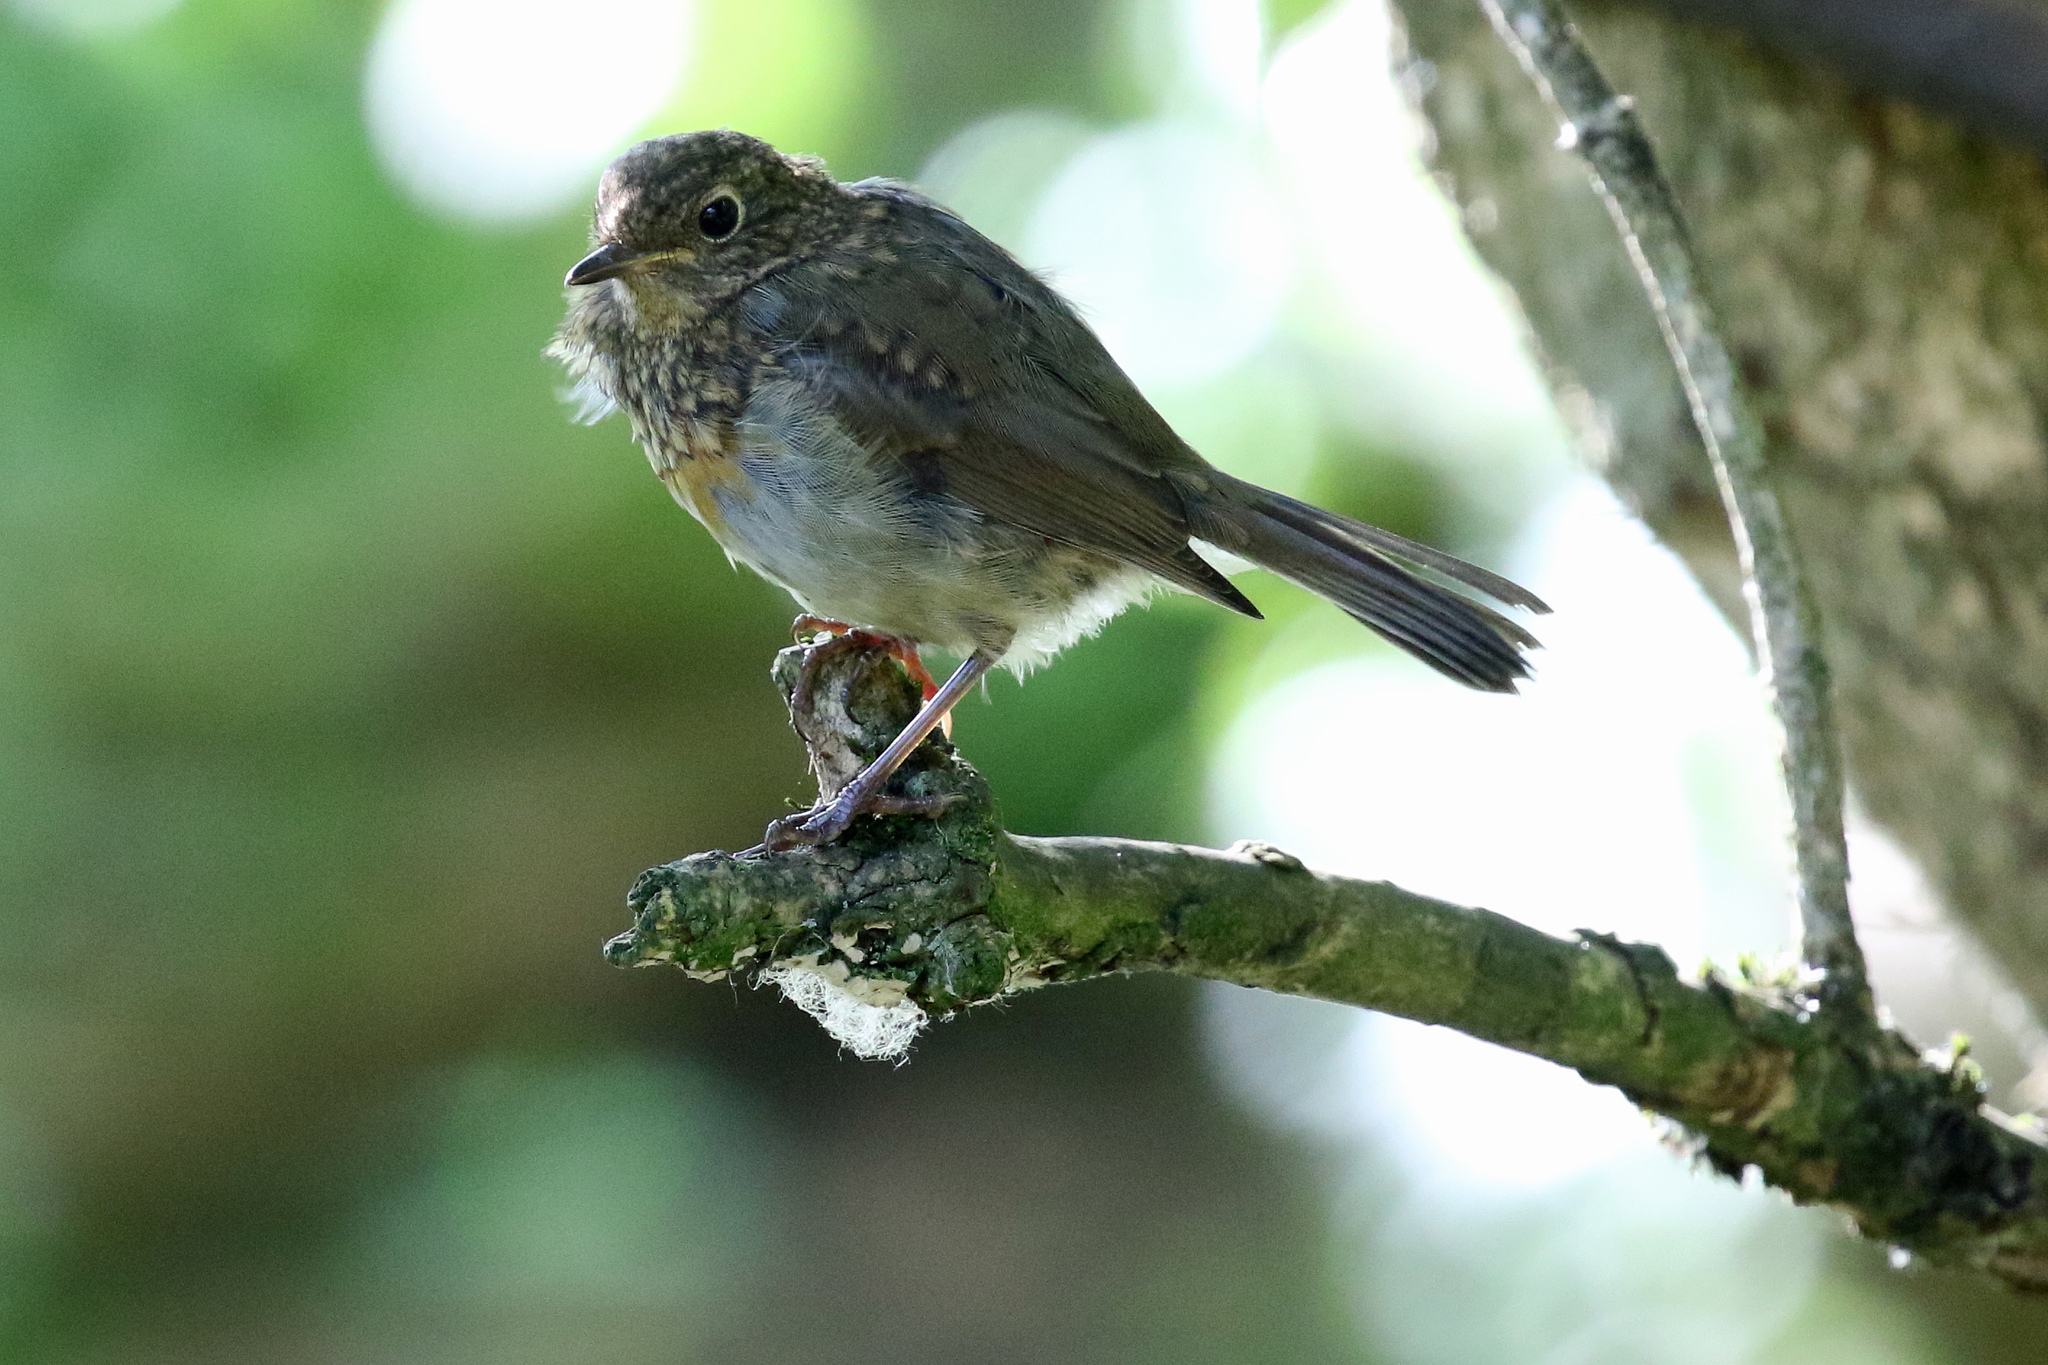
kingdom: Animalia
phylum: Chordata
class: Aves
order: Passeriformes
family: Muscicapidae
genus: Erithacus
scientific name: Erithacus rubecula
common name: European robin
